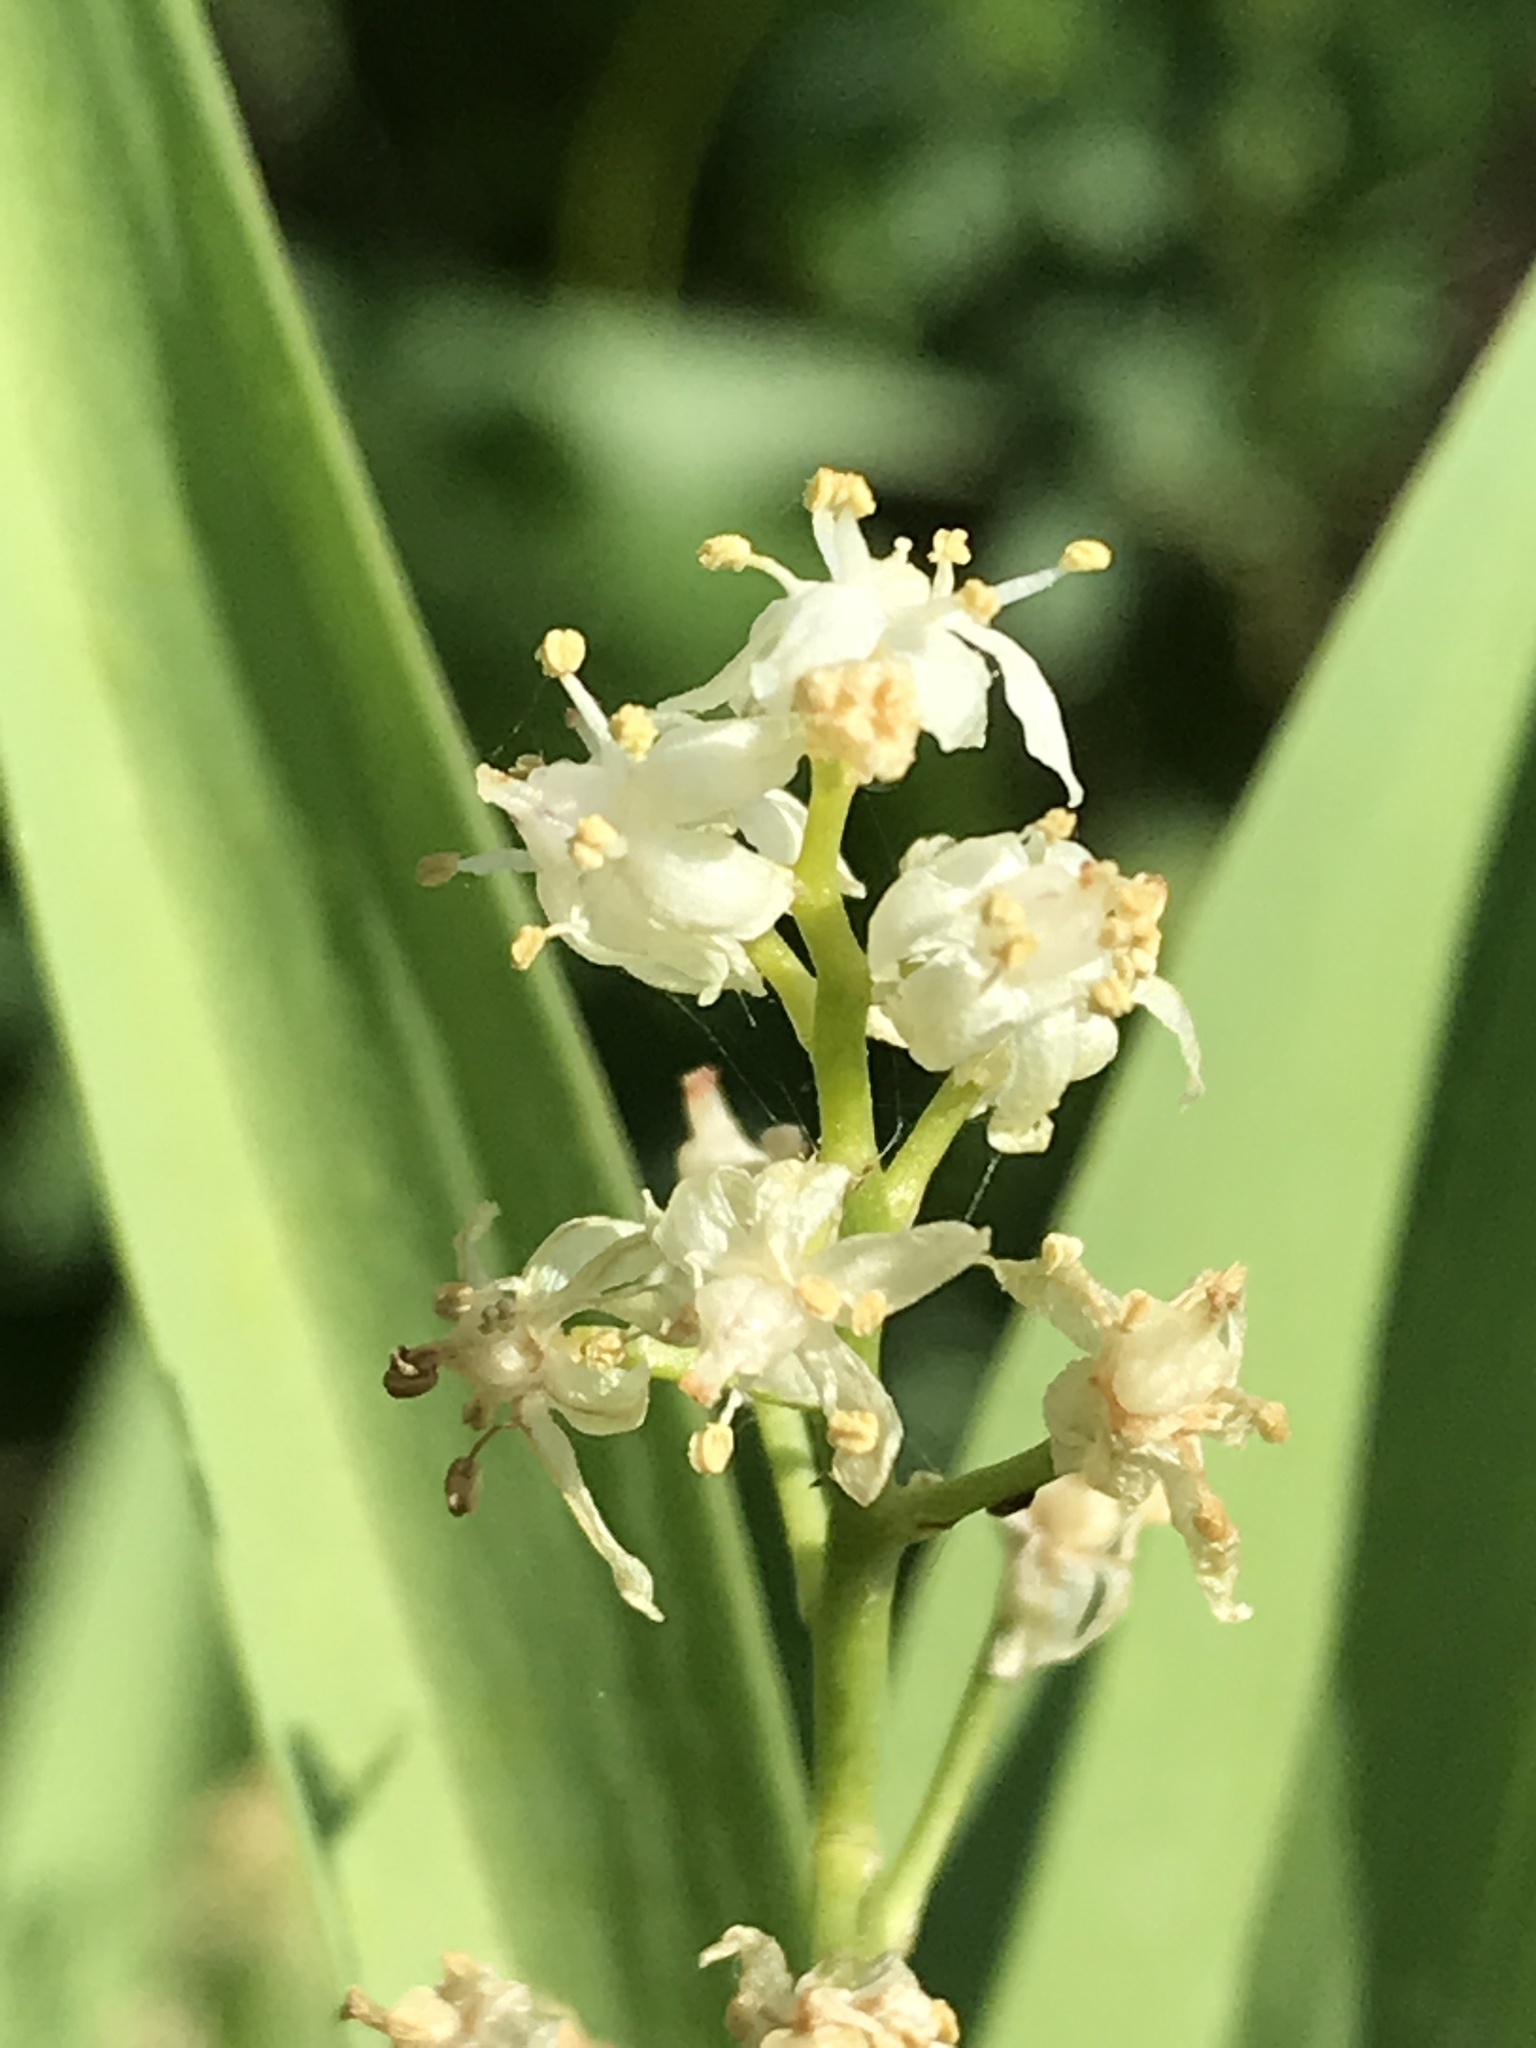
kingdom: Plantae
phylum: Tracheophyta
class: Liliopsida
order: Asparagales
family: Asparagaceae
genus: Maianthemum
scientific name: Maianthemum stellatum
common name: Little false solomon's seal
